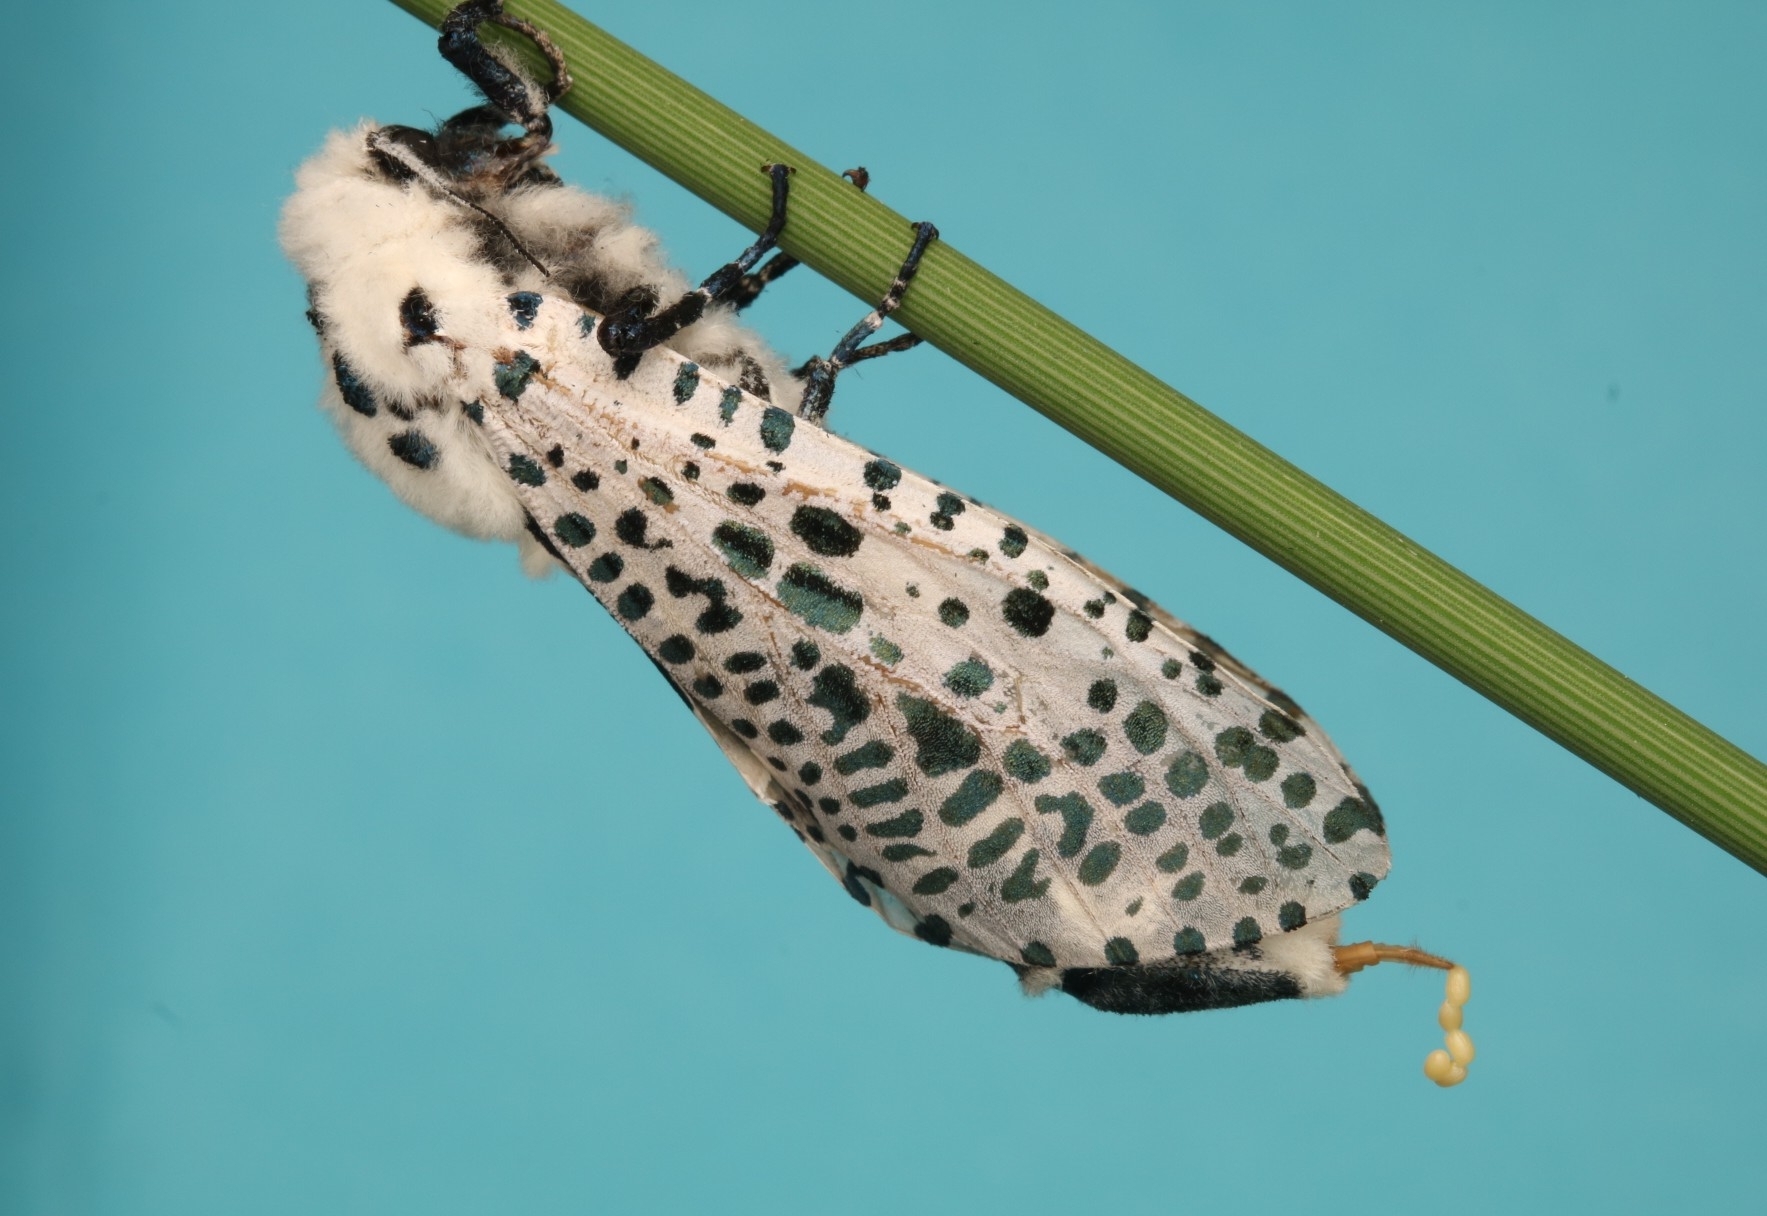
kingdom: Animalia
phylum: Arthropoda
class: Insecta
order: Lepidoptera
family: Cossidae
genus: Zeuzera
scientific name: Zeuzera pyrina
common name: Leopard moth
